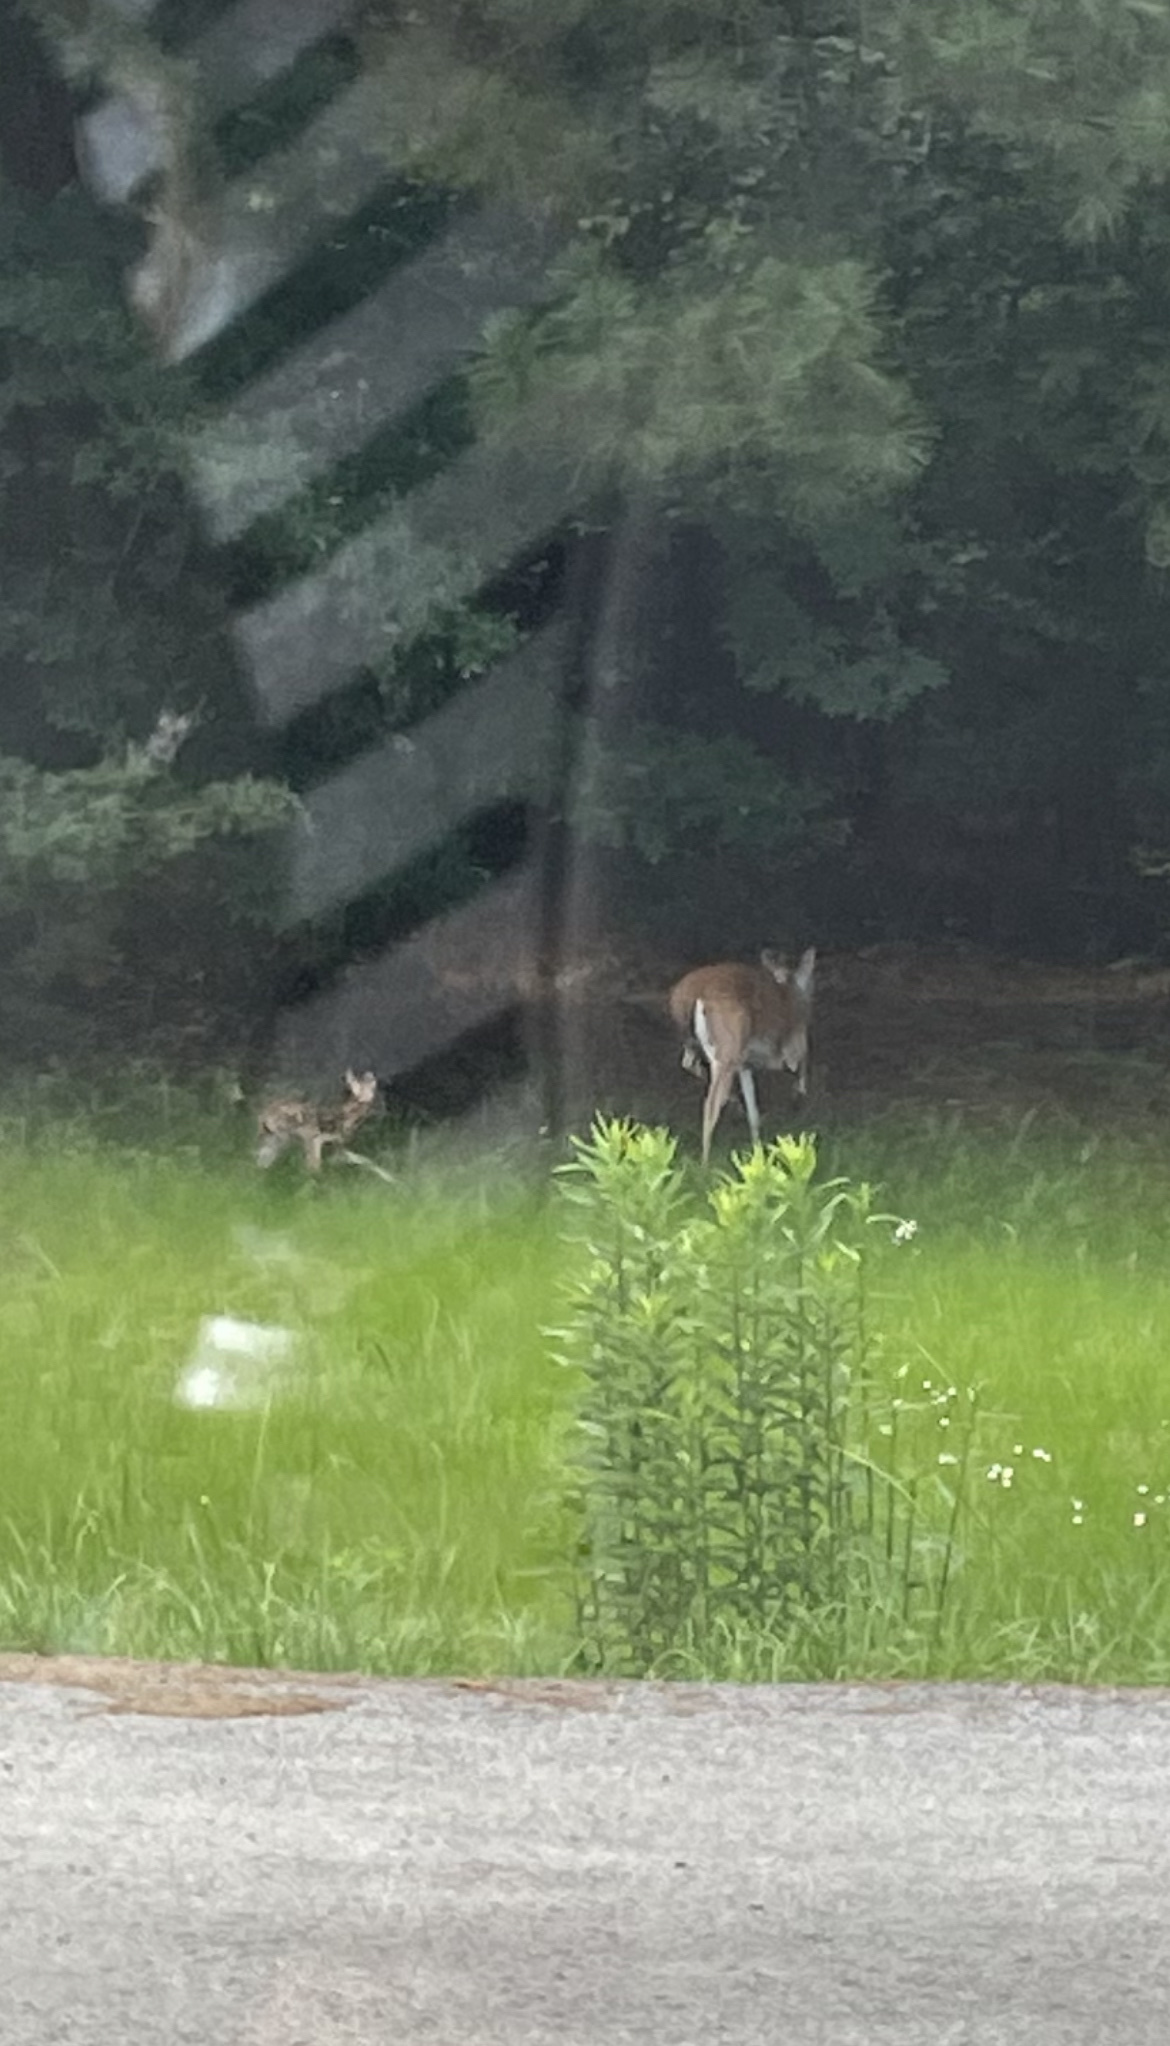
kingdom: Animalia
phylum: Chordata
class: Mammalia
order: Artiodactyla
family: Cervidae
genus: Odocoileus
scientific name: Odocoileus virginianus
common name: White-tailed deer
